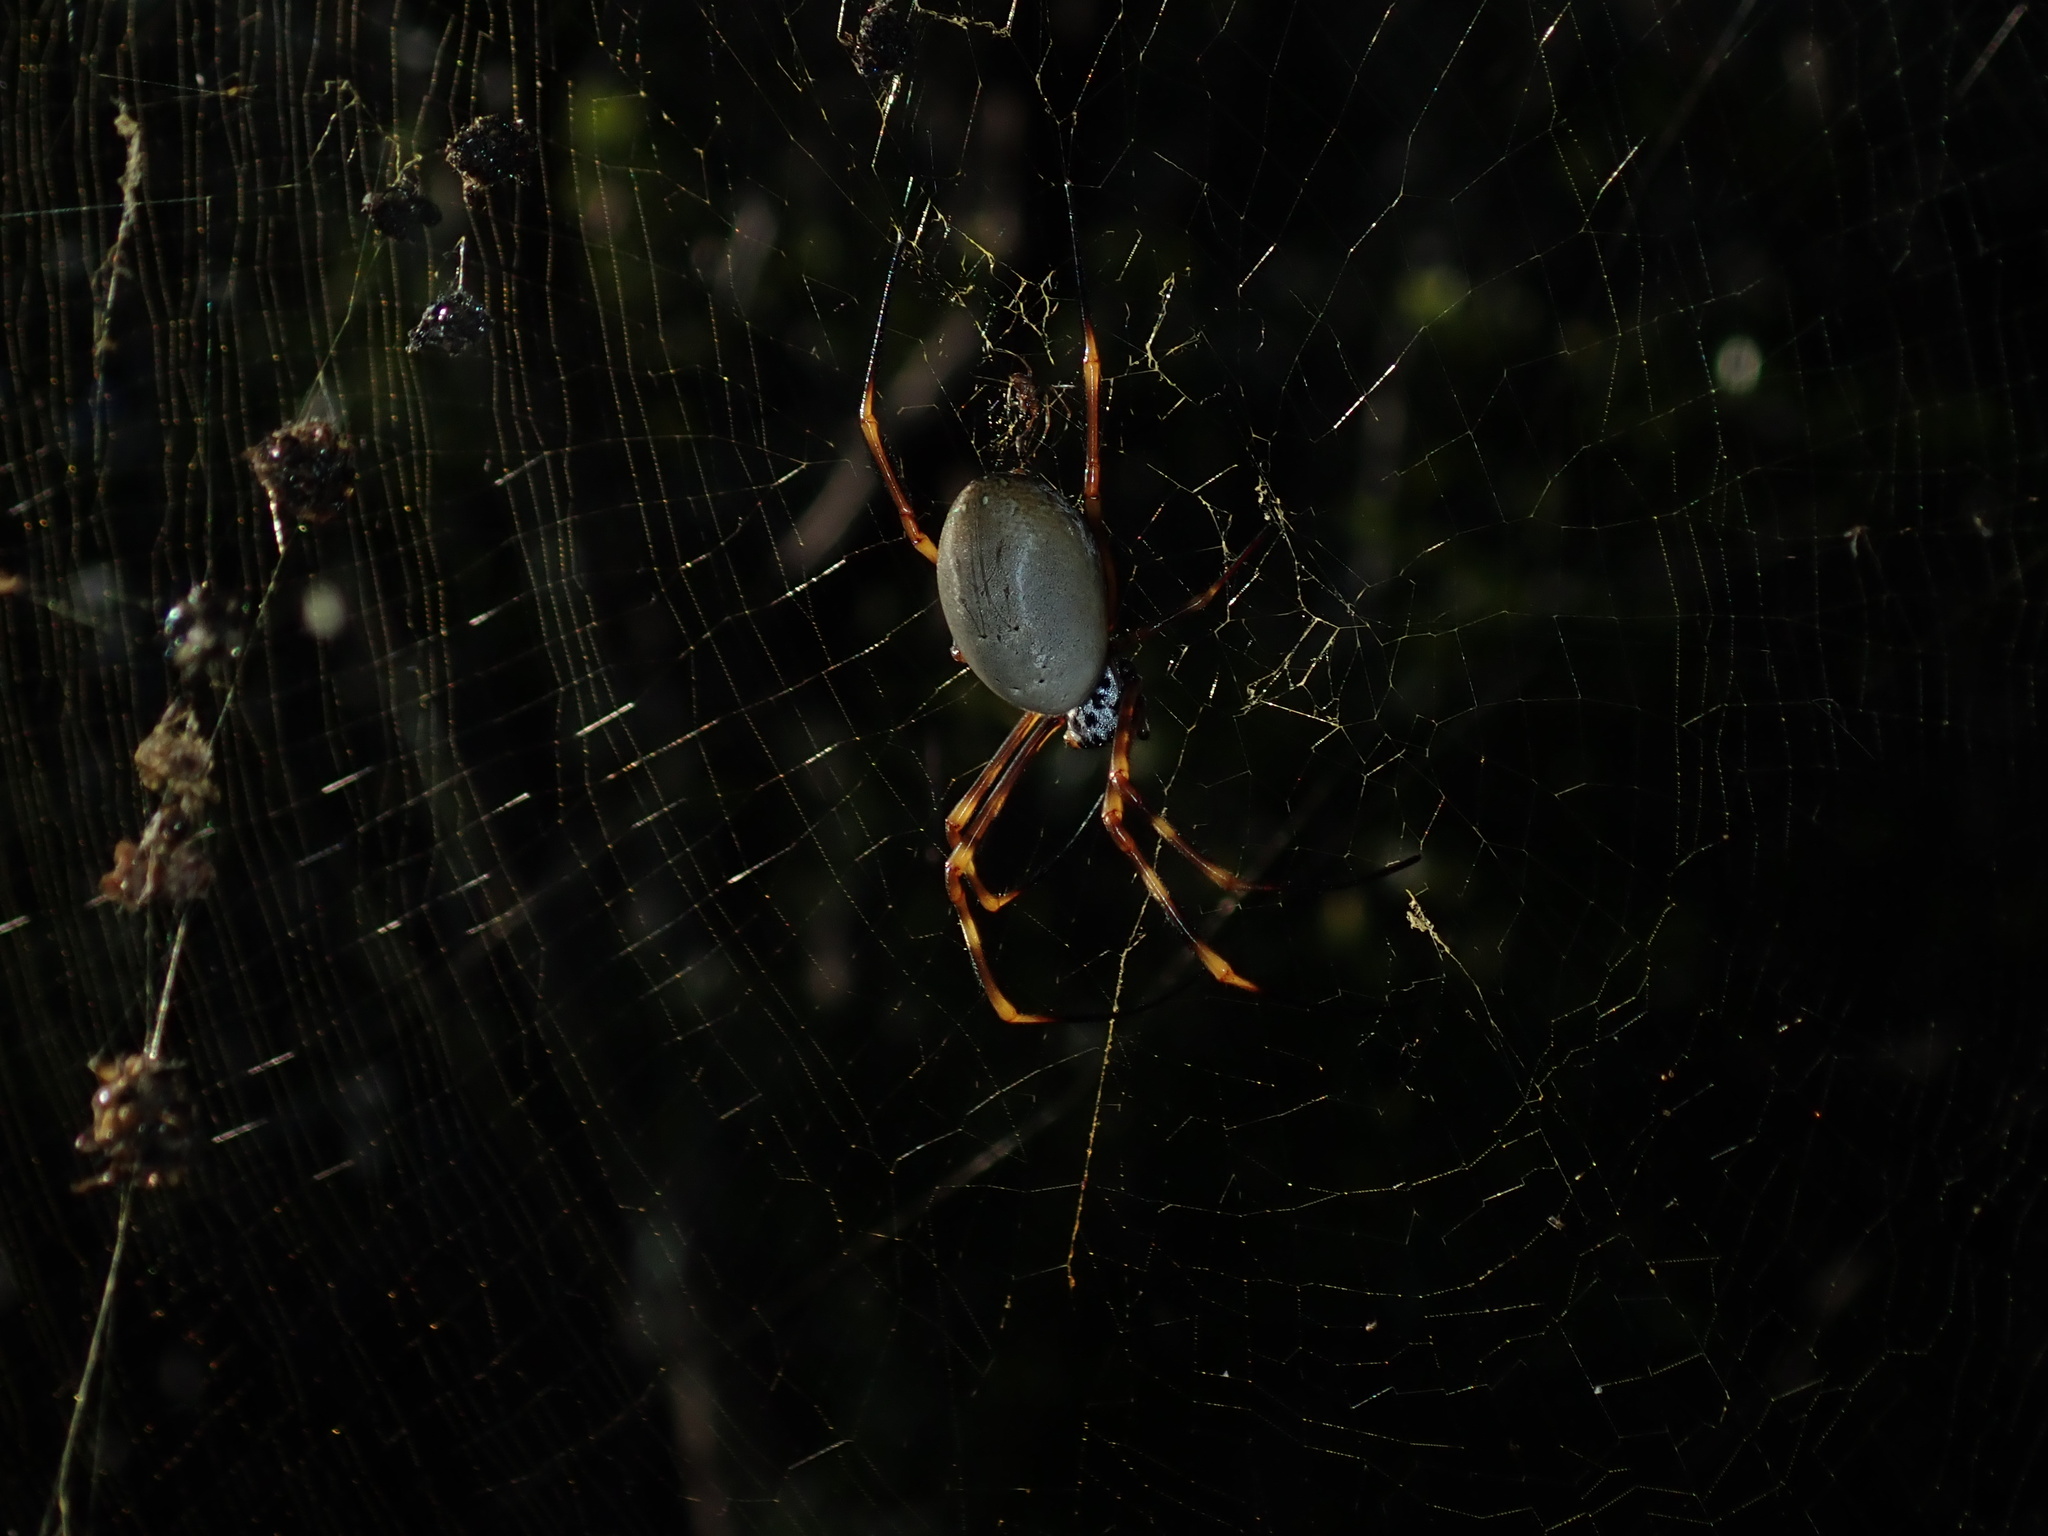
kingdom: Animalia
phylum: Arthropoda
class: Arachnida
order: Araneae
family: Araneidae
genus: Trichonephila
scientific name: Trichonephila plumipes
